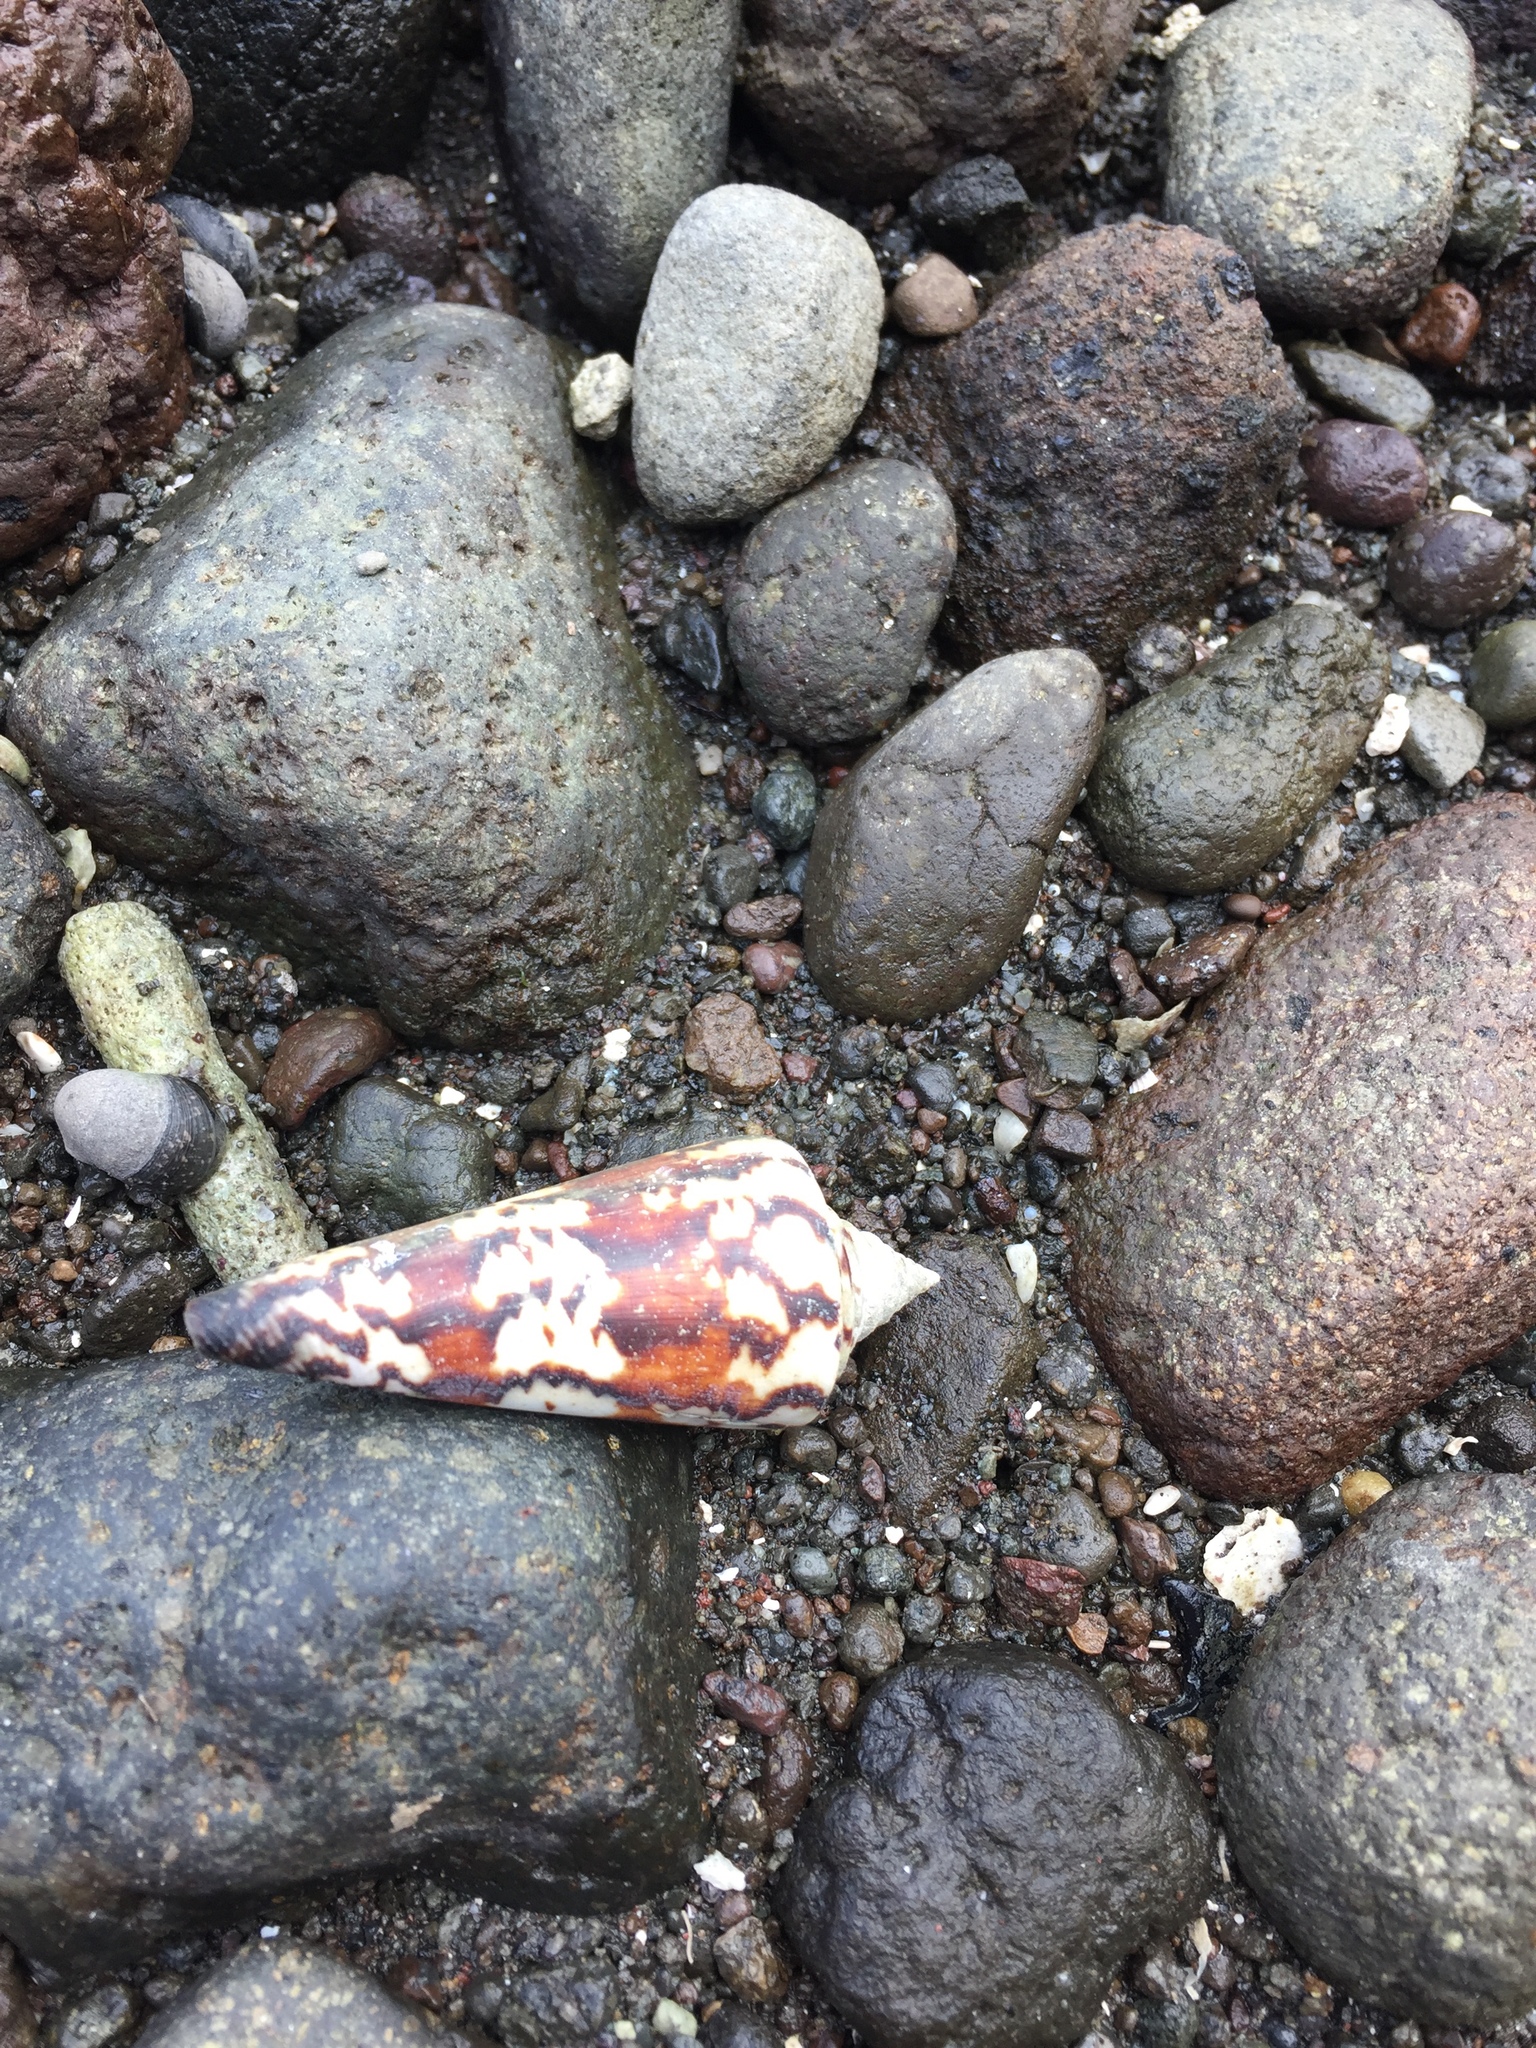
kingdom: Animalia
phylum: Mollusca
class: Gastropoda
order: Neogastropoda
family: Conidae
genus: Conus
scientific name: Conus generalis
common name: General cone
